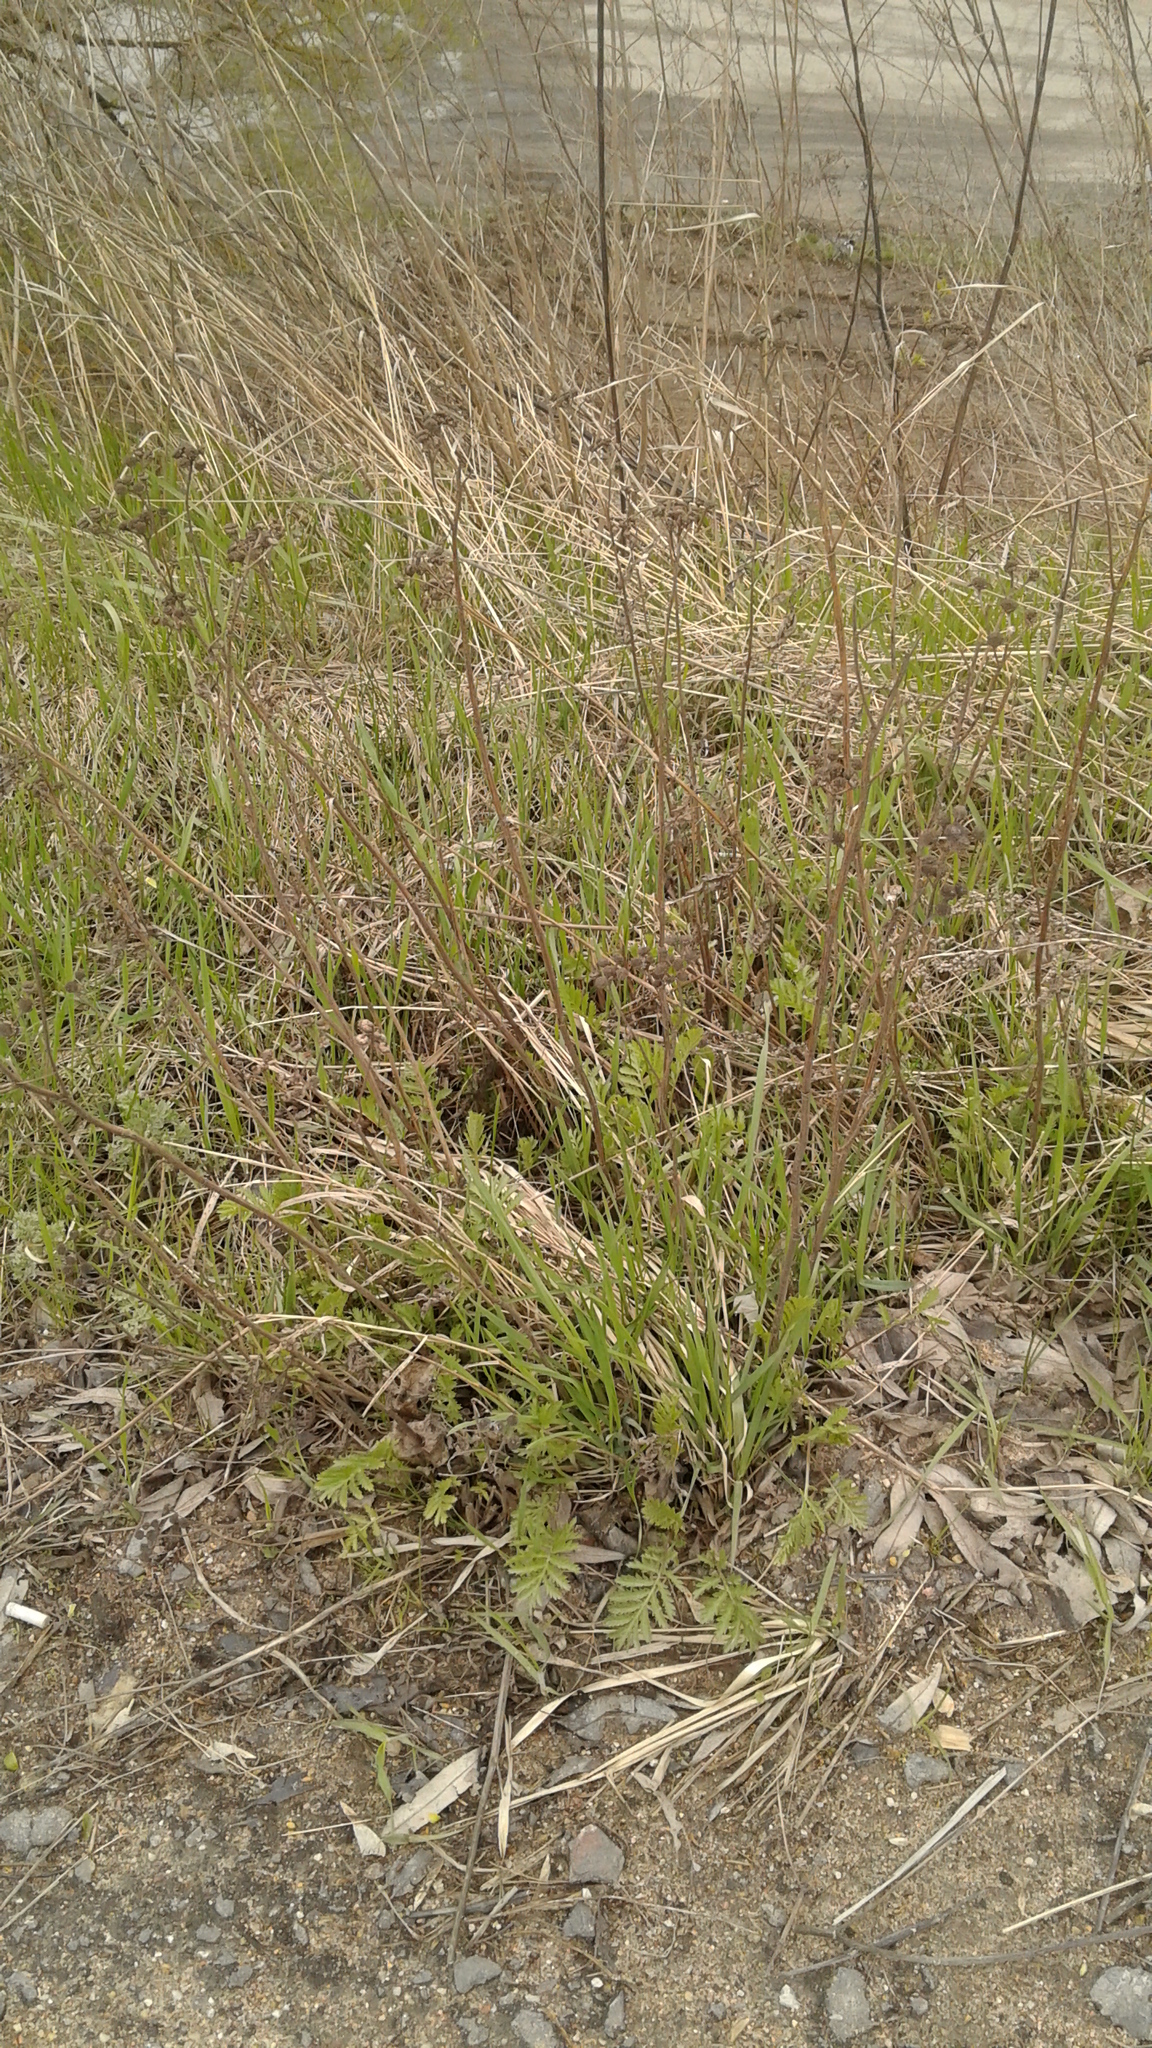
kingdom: Plantae
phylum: Tracheophyta
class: Magnoliopsida
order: Asterales
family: Asteraceae
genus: Tanacetum
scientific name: Tanacetum vulgare
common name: Common tansy
